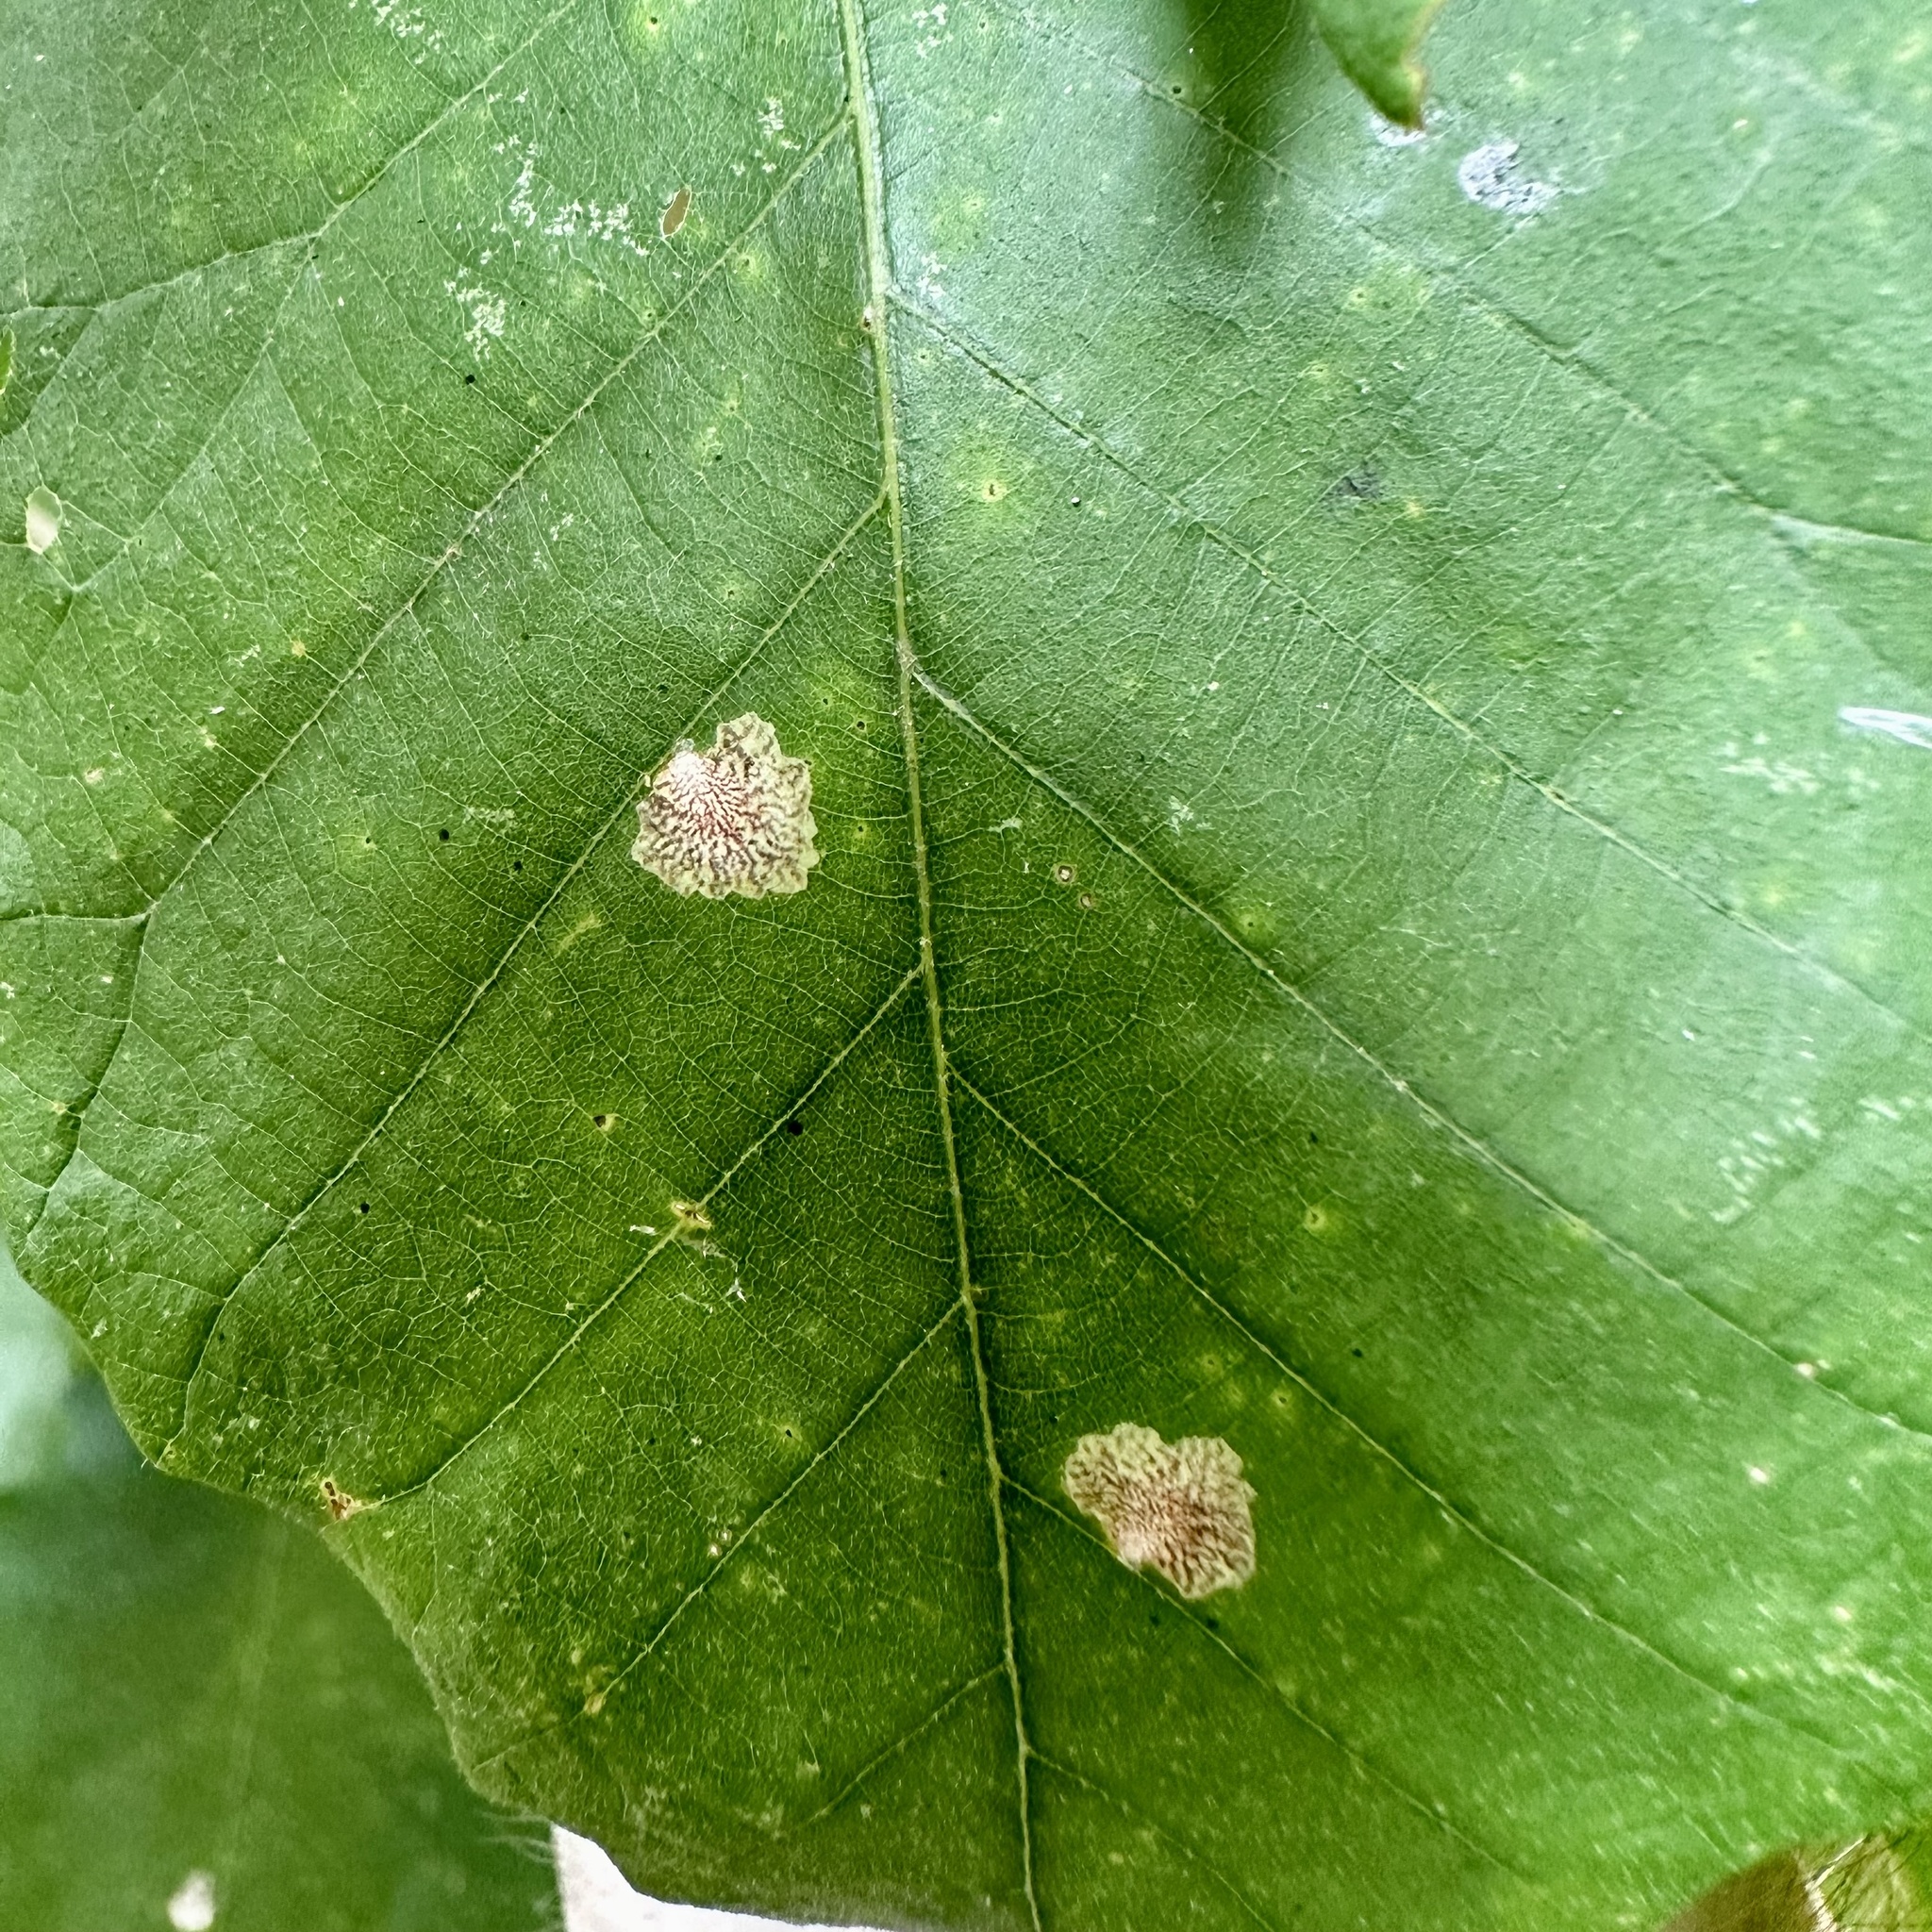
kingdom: Animalia
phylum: Arthropoda
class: Insecta
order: Lepidoptera
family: Tischeriidae
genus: Tischeria
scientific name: Tischeria quercitella
